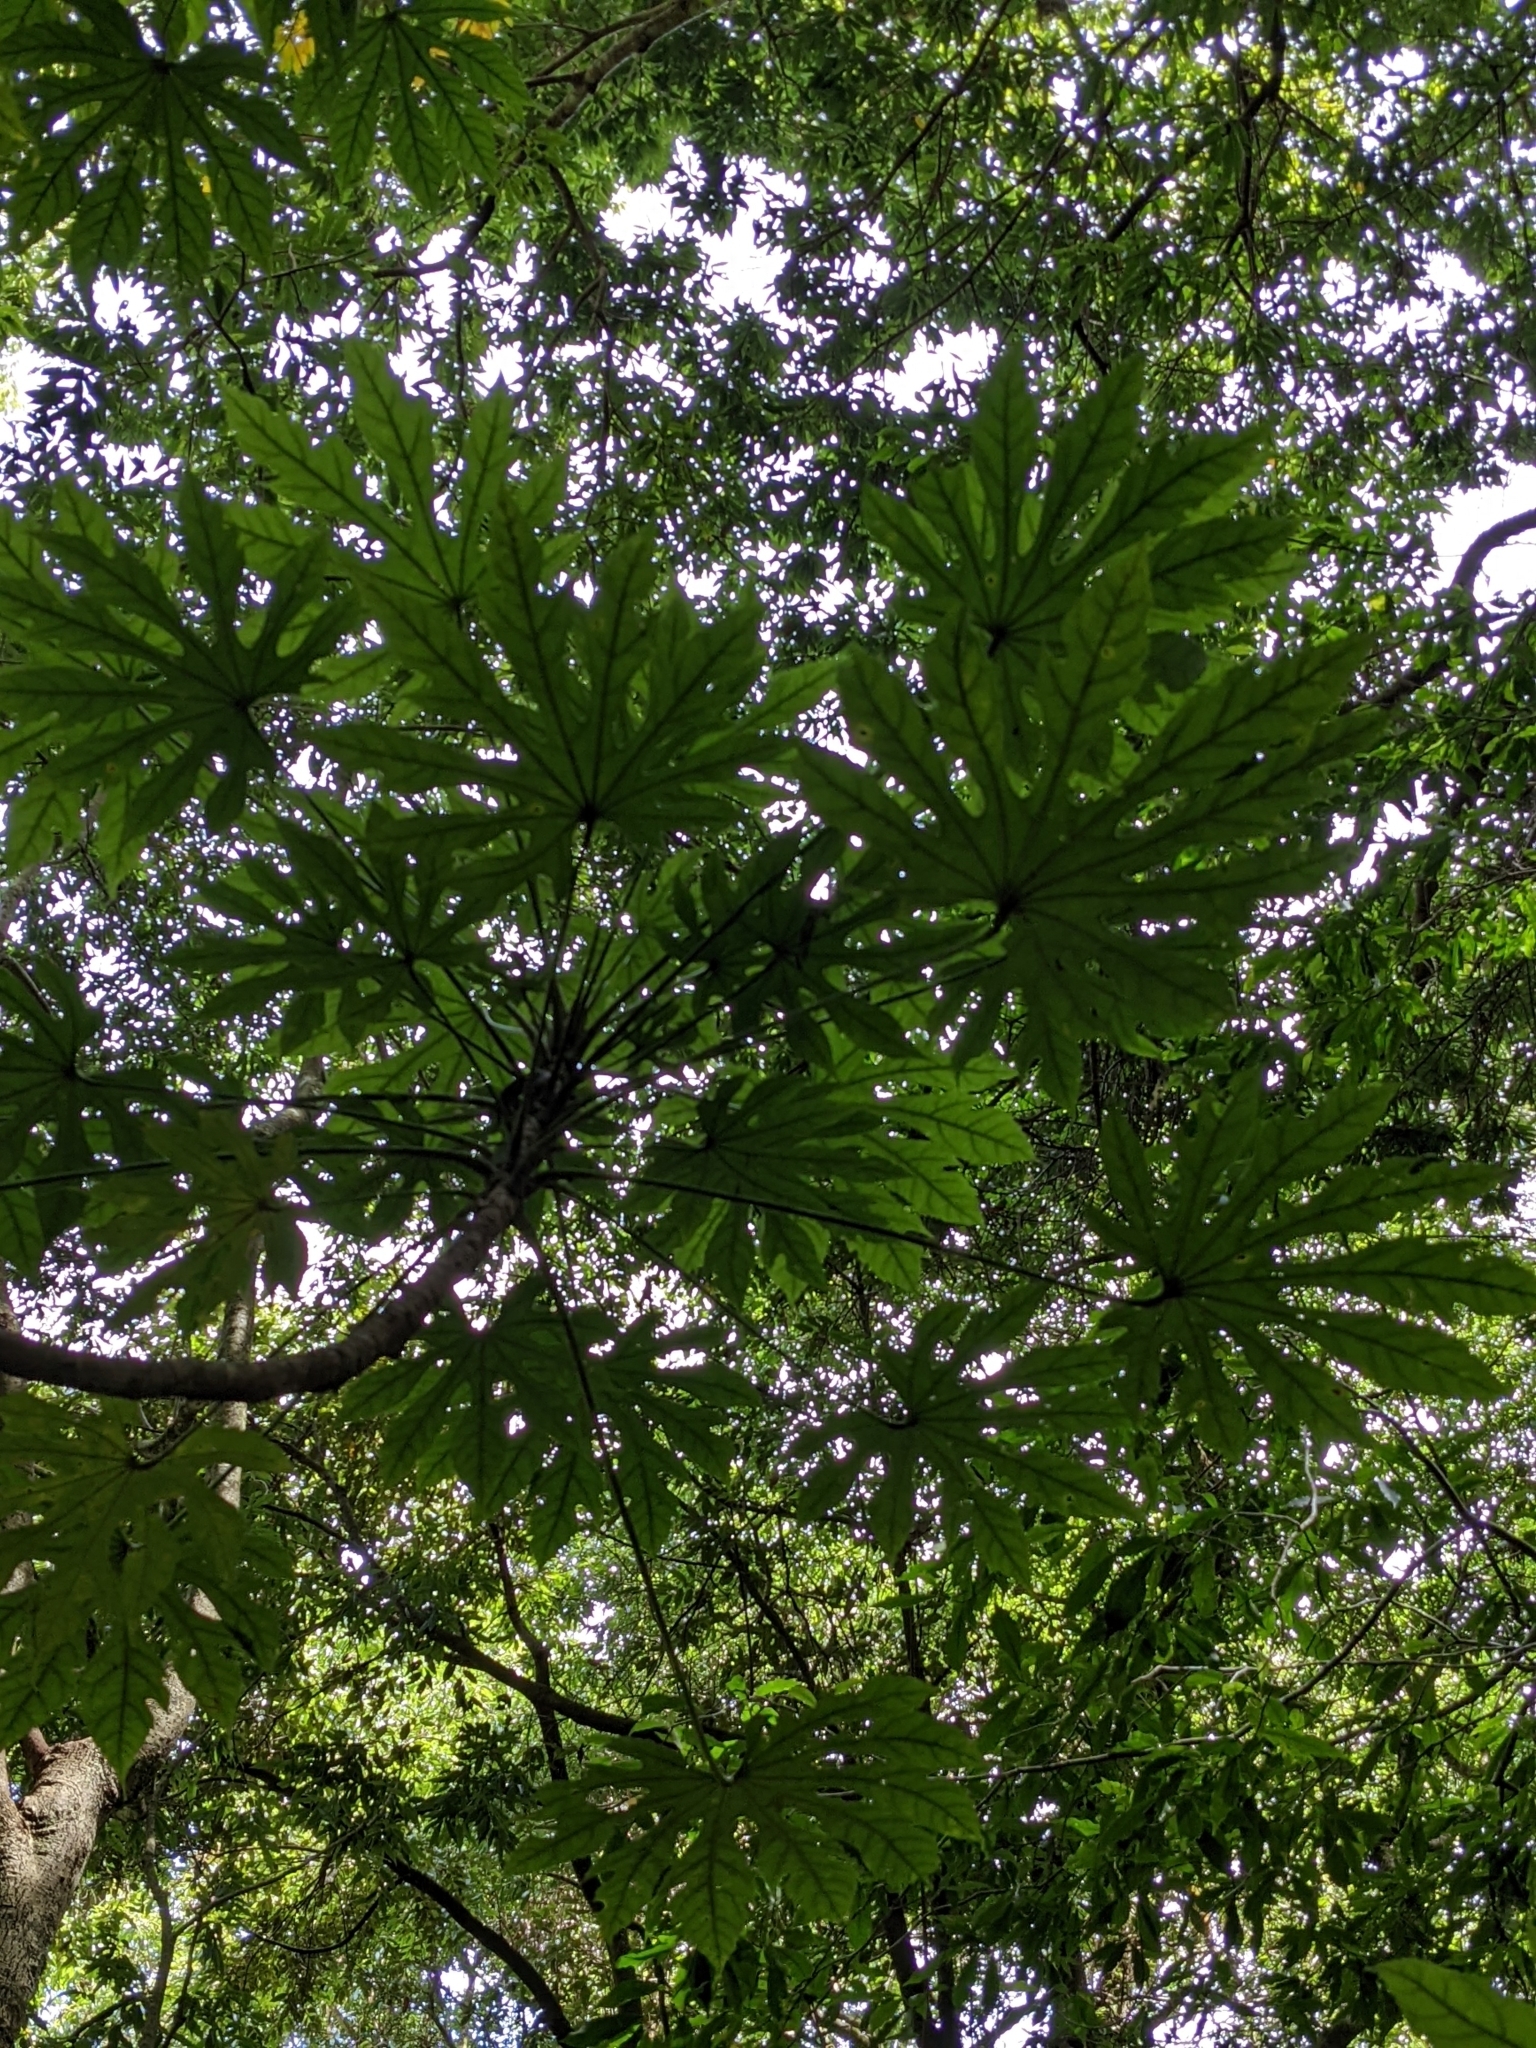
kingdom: Plantae
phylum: Tracheophyta
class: Magnoliopsida
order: Apiales
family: Araliaceae
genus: Fatsia
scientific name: Fatsia polycarpa
